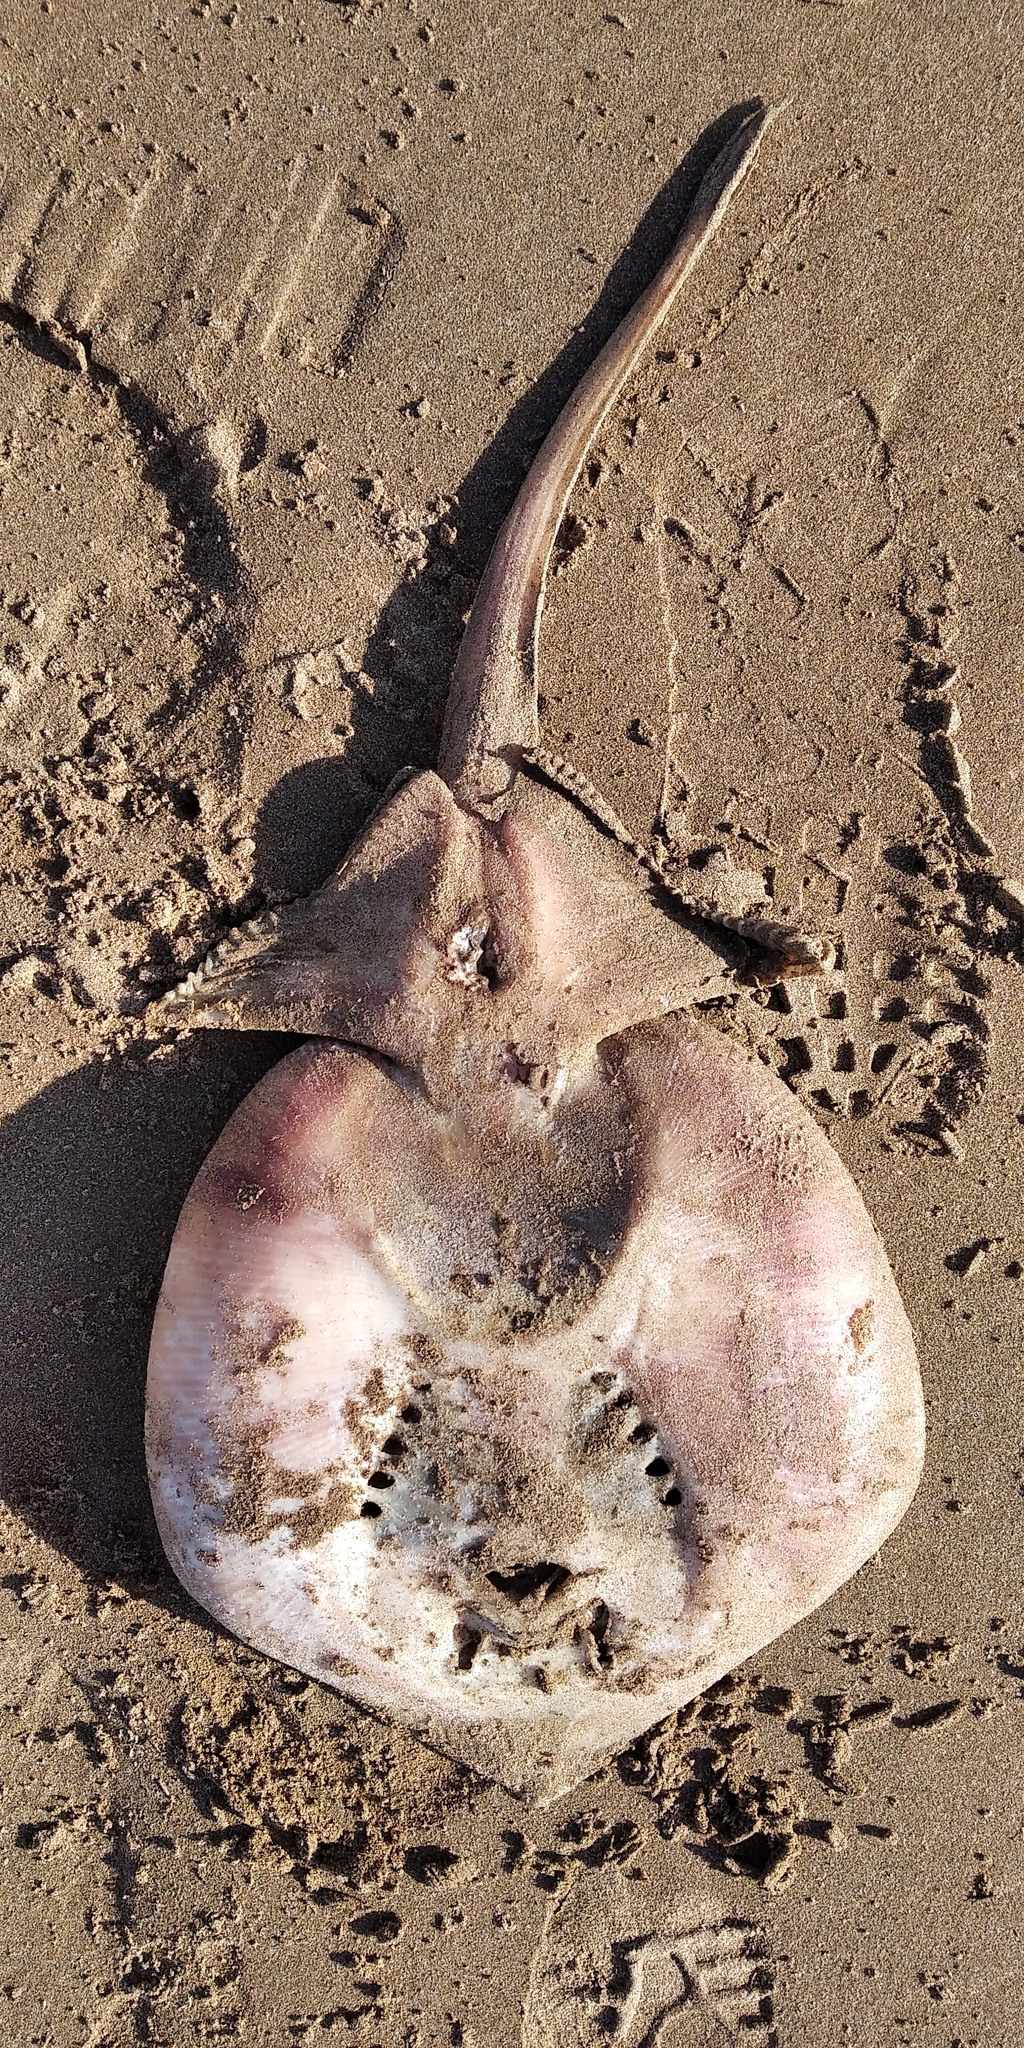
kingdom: Animalia
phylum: Chordata
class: Elasmobranchii
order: Rajiformes
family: Arhynchobatidae
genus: Sympterygia
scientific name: Sympterygia bonapartii
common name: Smallnose fanskate
